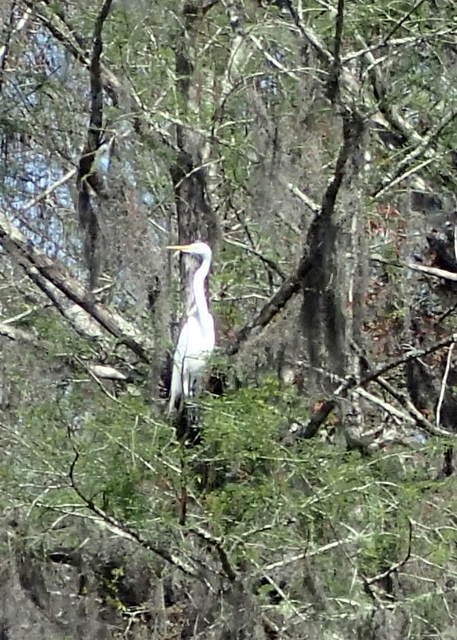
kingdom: Animalia
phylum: Chordata
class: Aves
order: Pelecaniformes
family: Ardeidae
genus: Ardea
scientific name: Ardea alba
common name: Great egret
